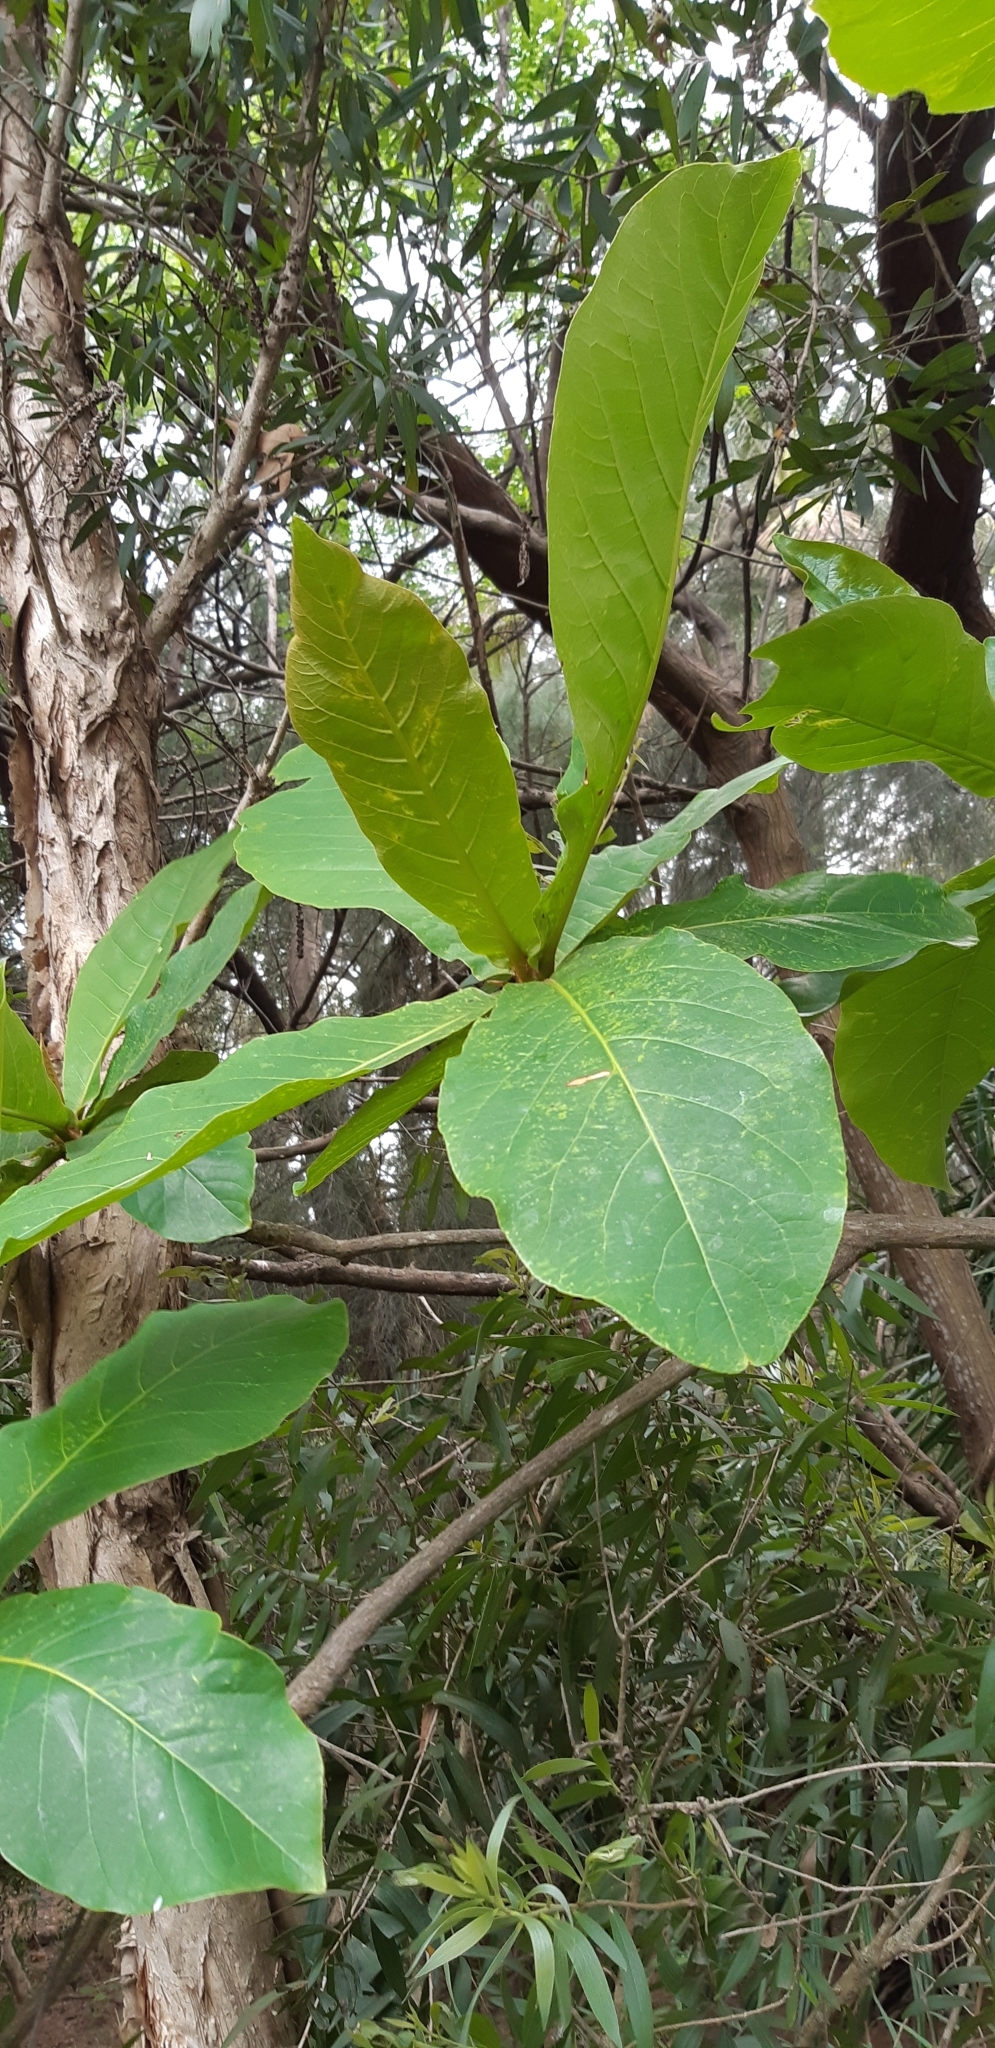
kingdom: Plantae
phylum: Tracheophyta
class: Magnoliopsida
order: Myrtales
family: Combretaceae
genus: Terminalia
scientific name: Terminalia catappa
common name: Tropical almond
